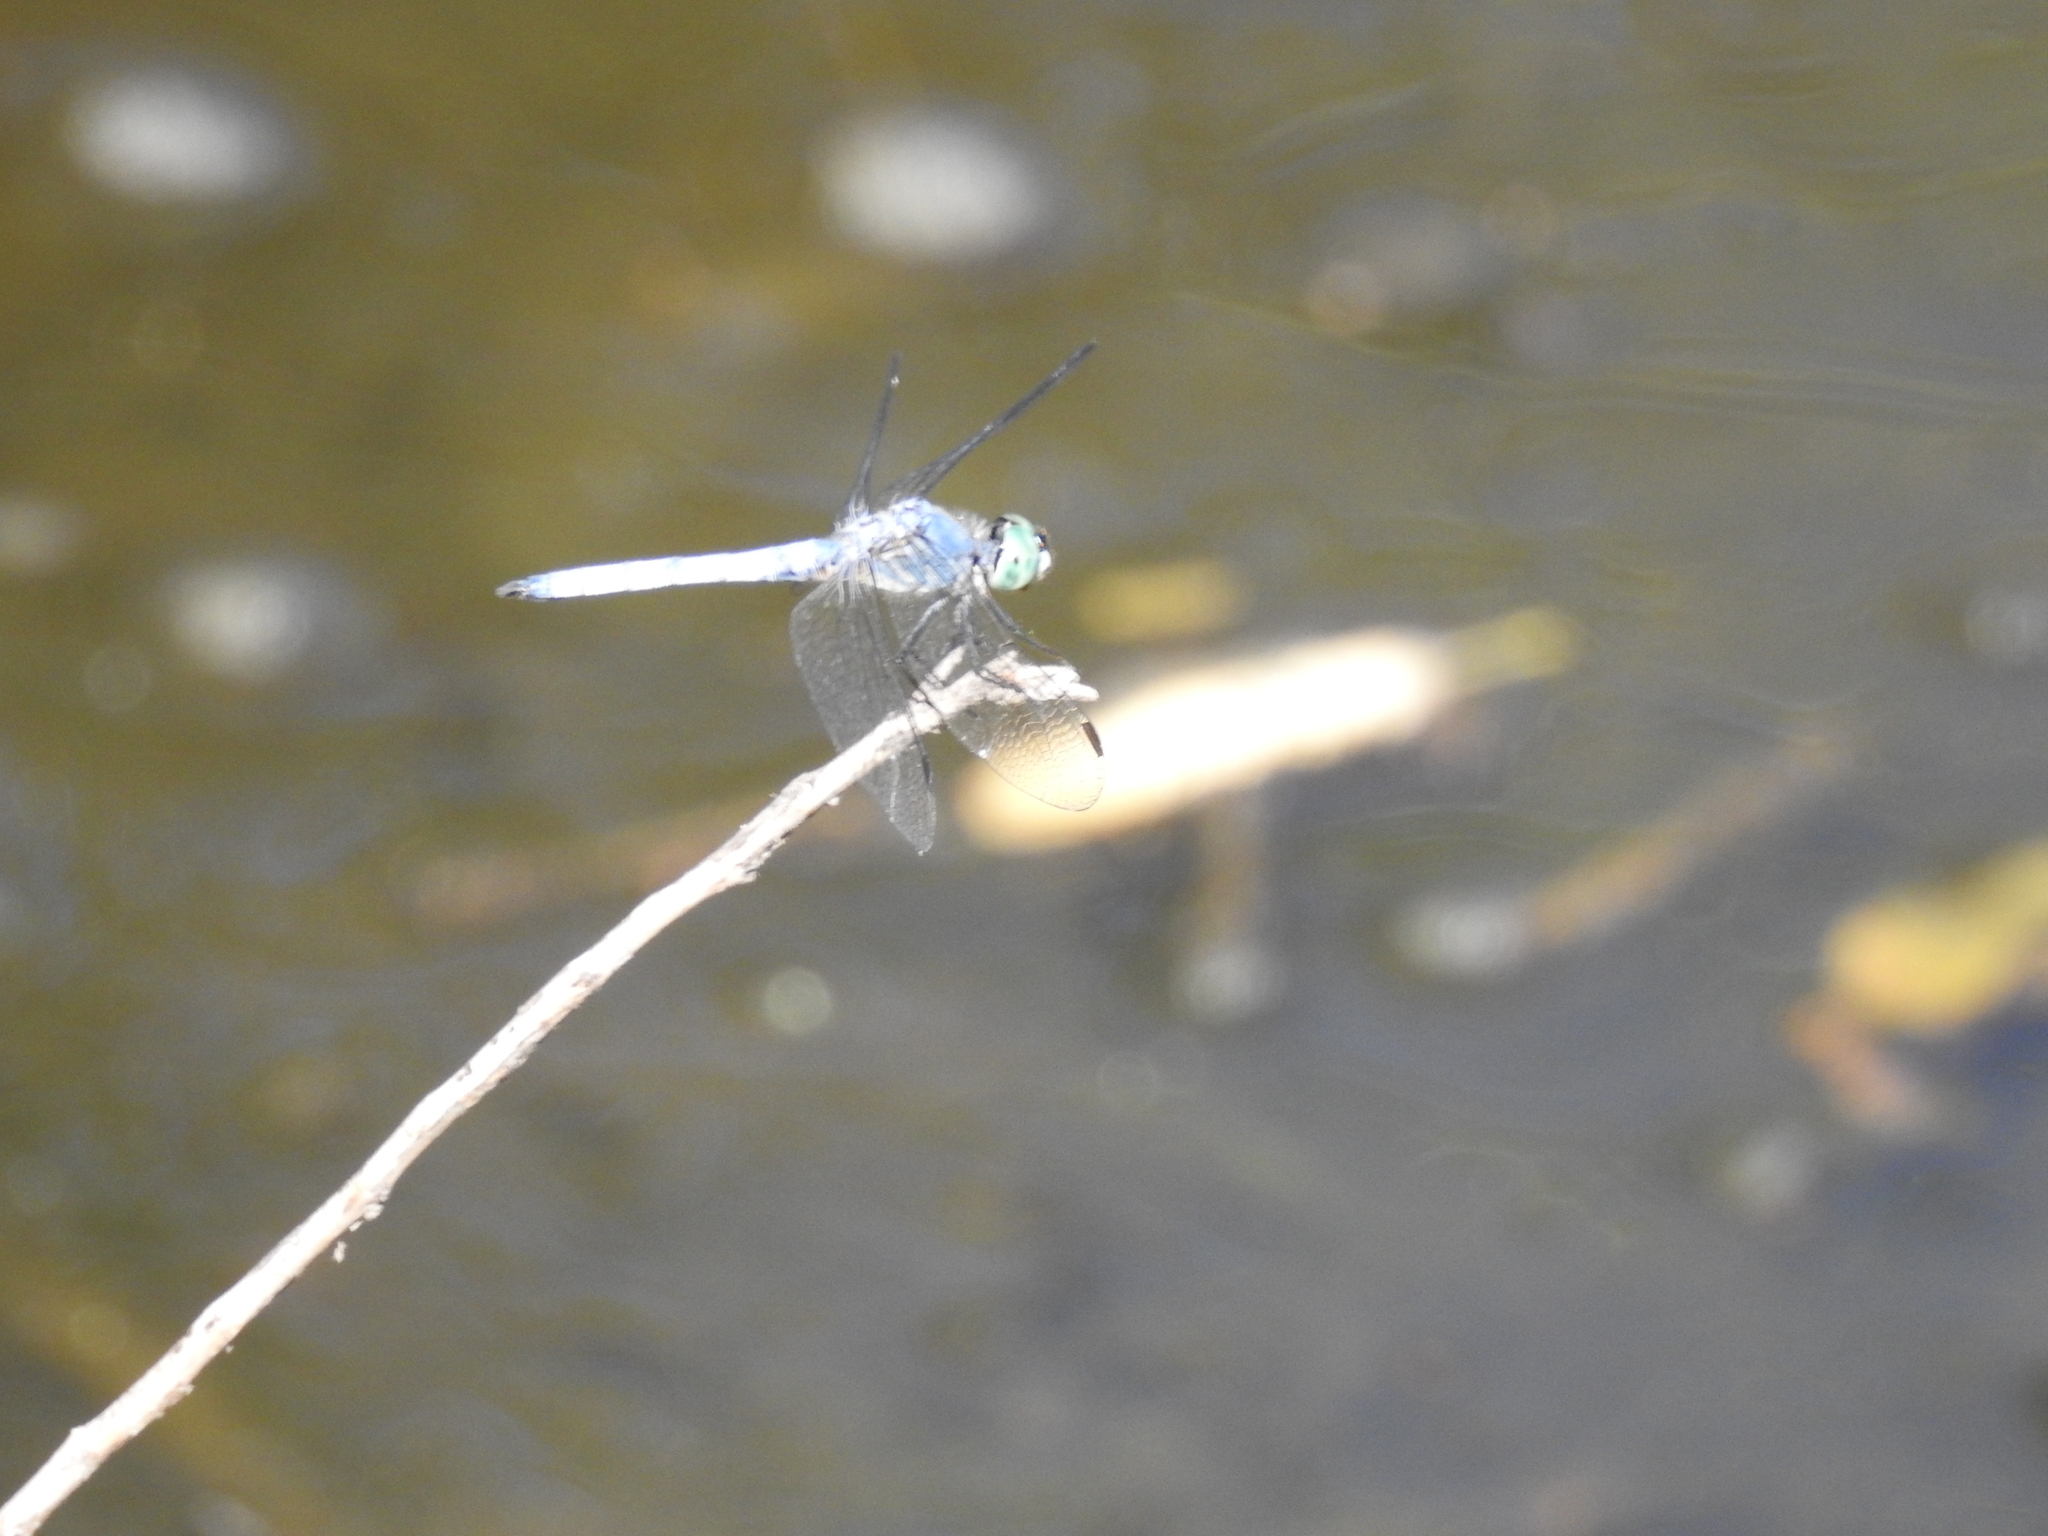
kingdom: Animalia
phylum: Arthropoda
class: Insecta
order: Odonata
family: Libellulidae
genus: Pachydiplax
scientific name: Pachydiplax longipennis
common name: Blue dasher
